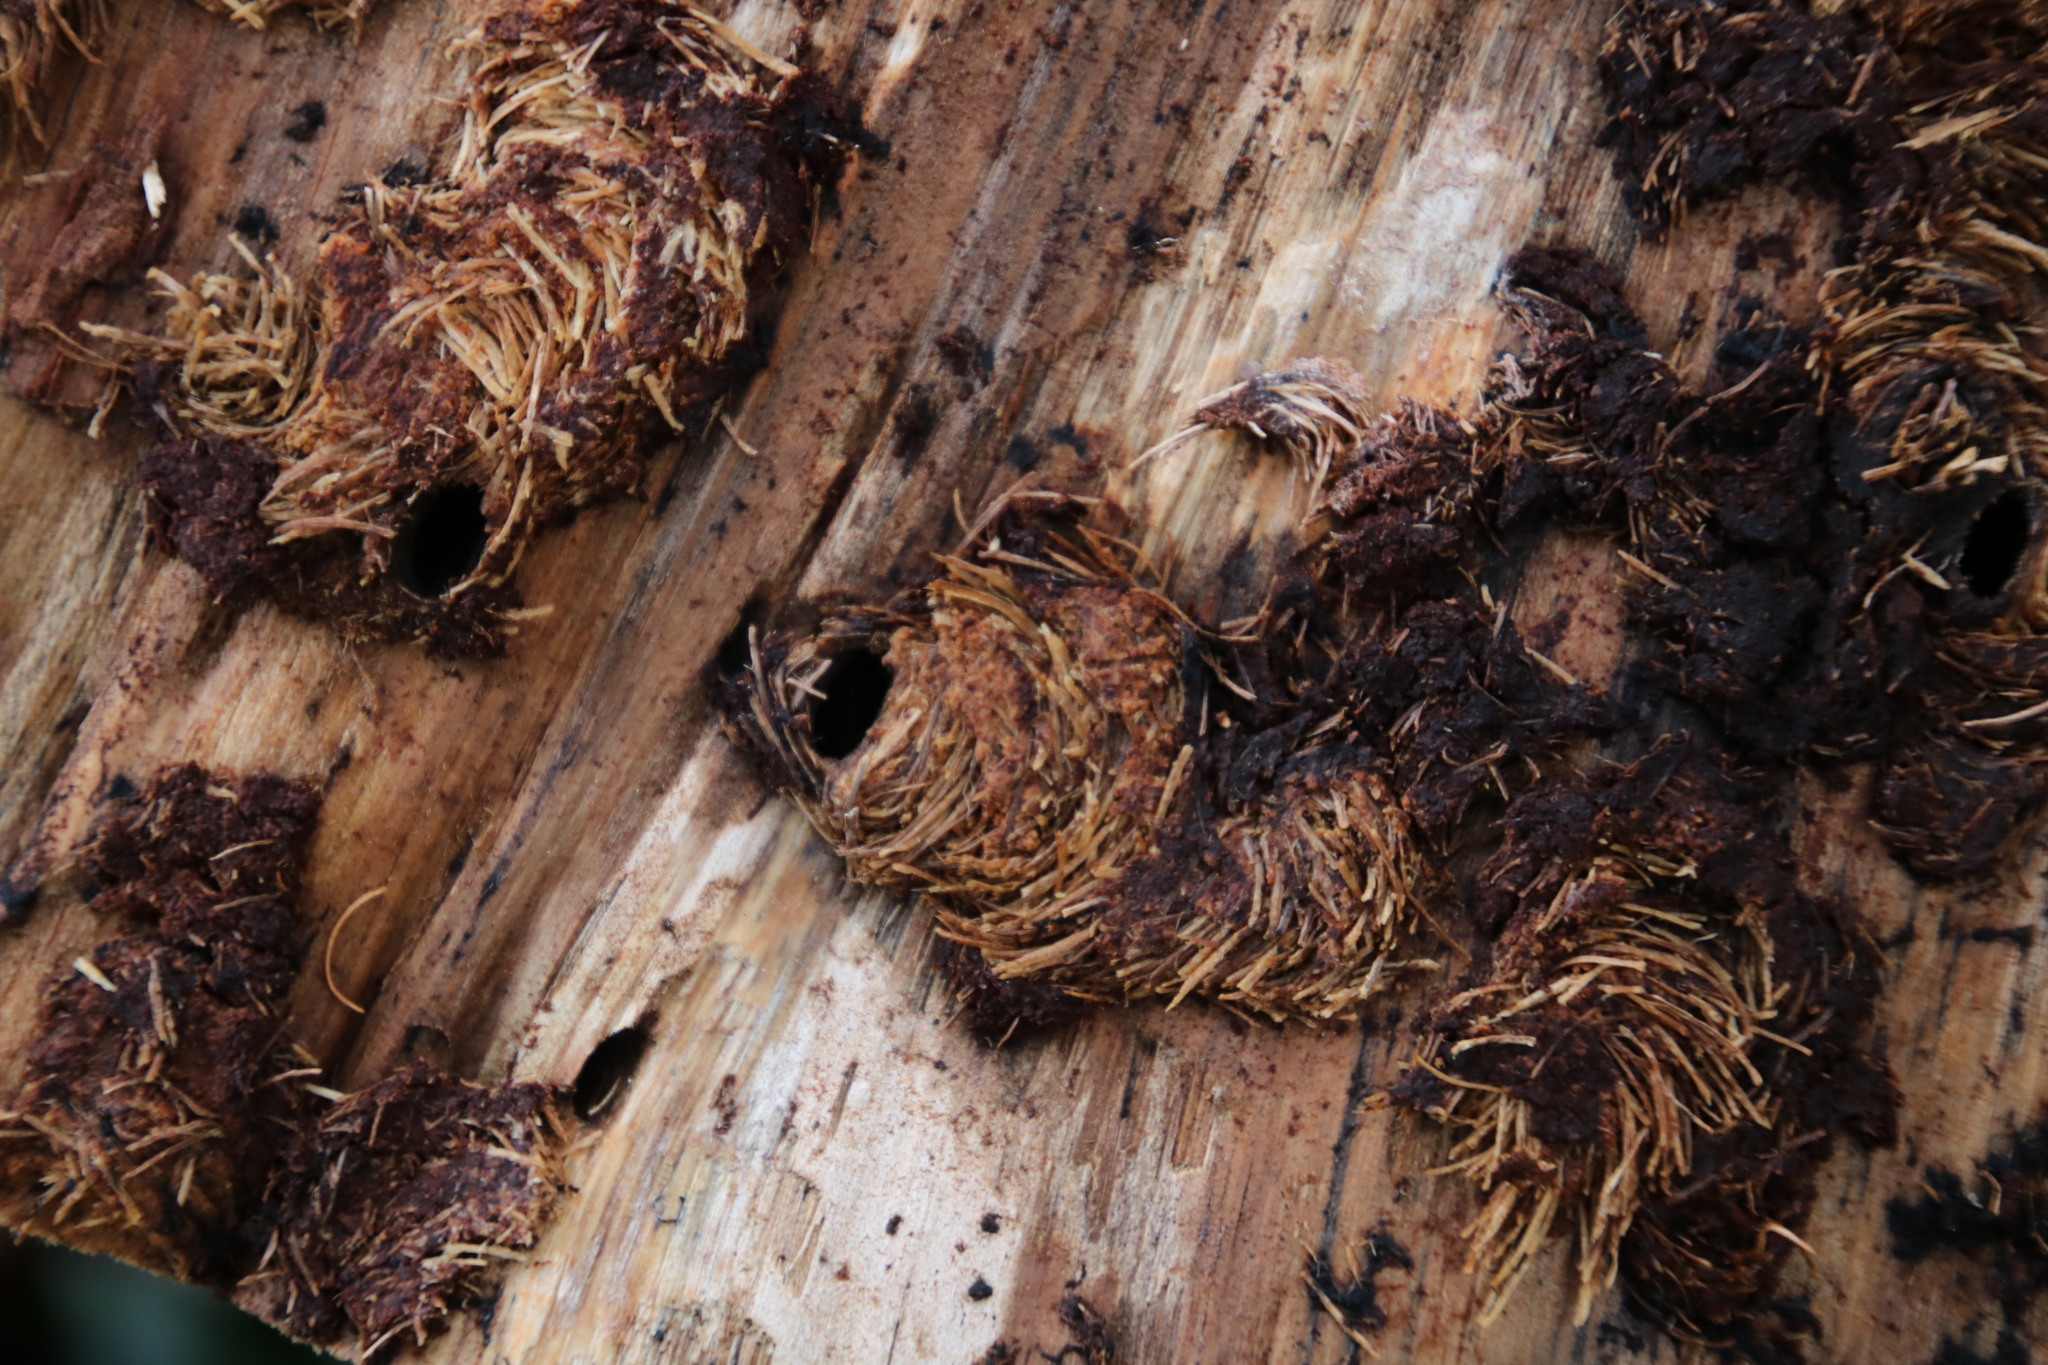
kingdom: Animalia
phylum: Arthropoda
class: Insecta
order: Coleoptera
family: Curculionidae
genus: Pissodes
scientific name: Pissodes
